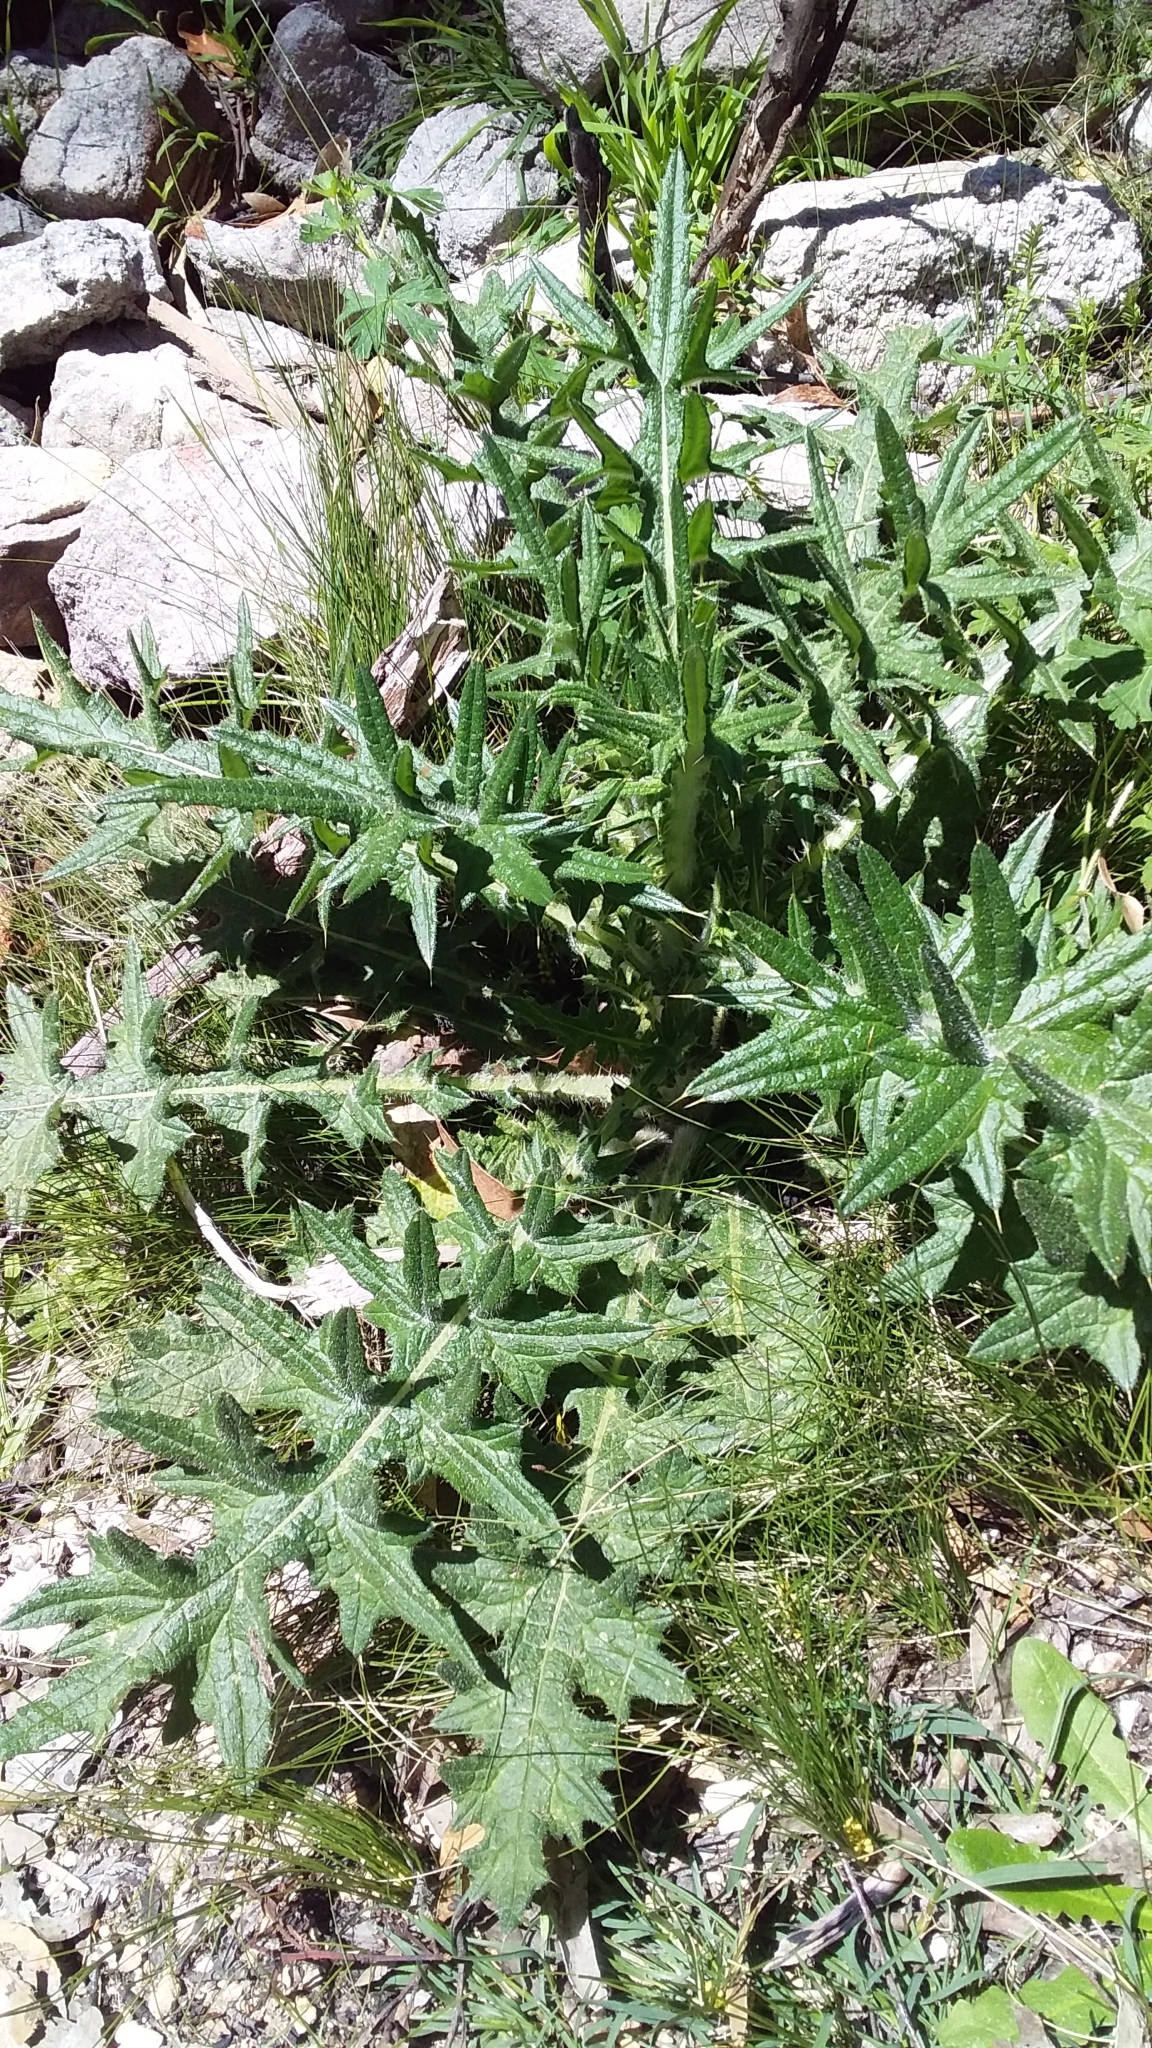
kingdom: Plantae
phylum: Tracheophyta
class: Magnoliopsida
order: Asterales
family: Asteraceae
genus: Cirsium
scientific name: Cirsium vulgare
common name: Bull thistle
